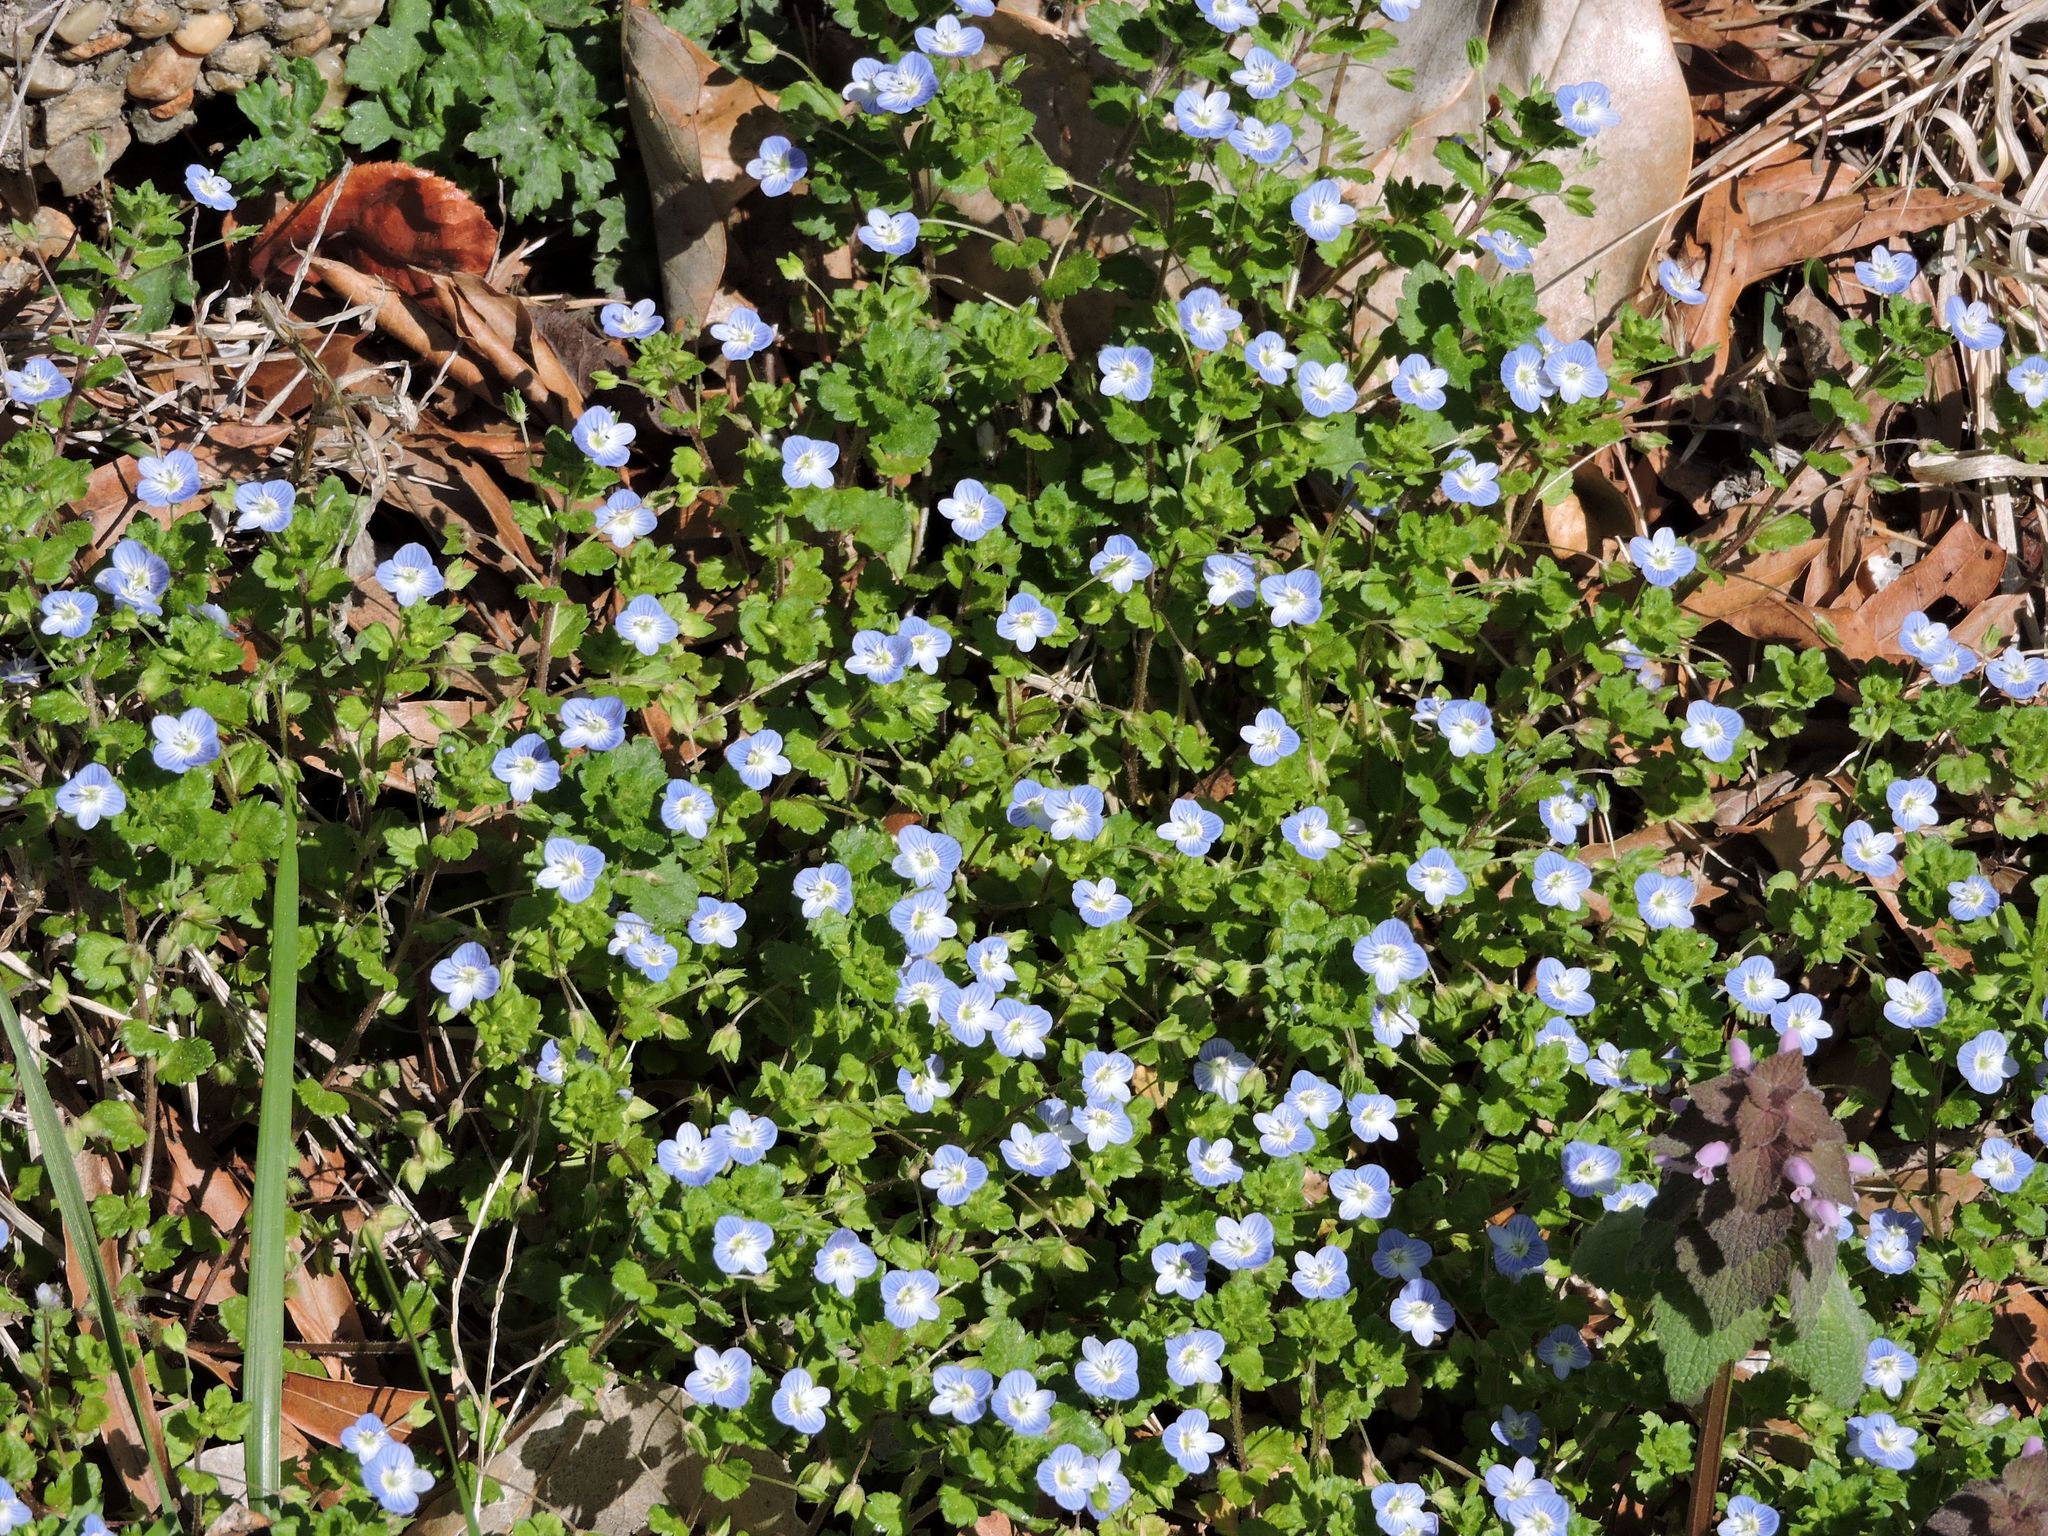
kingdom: Plantae
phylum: Tracheophyta
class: Magnoliopsida
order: Lamiales
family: Plantaginaceae
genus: Veronica
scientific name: Veronica persica
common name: Common field-speedwell
